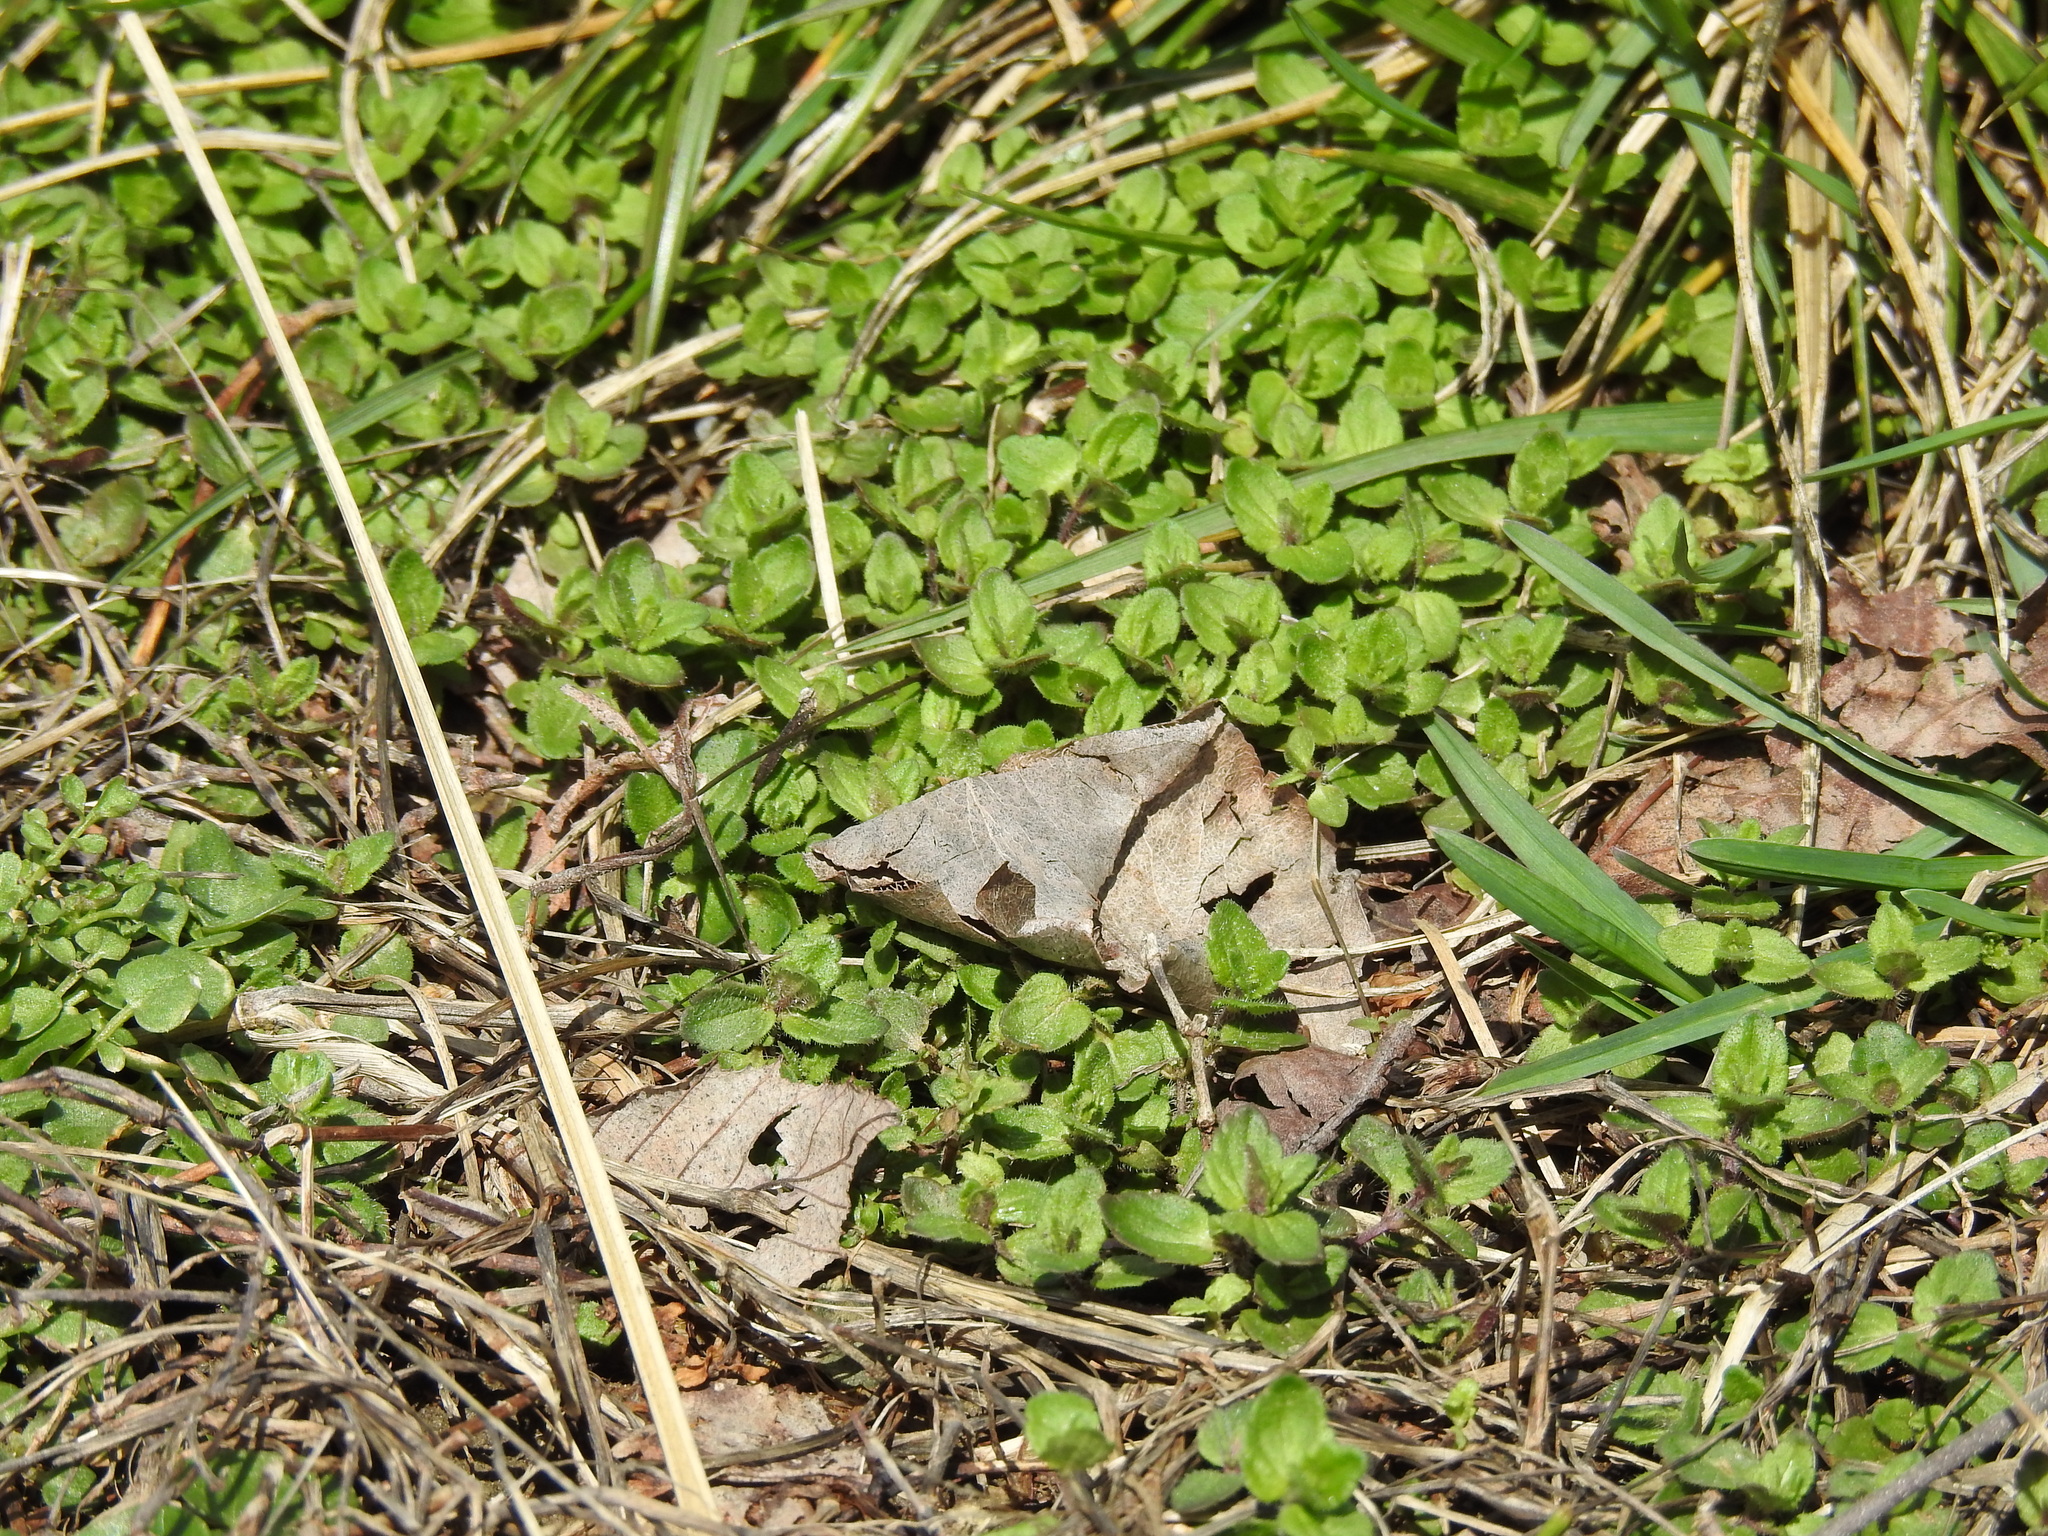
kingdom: Plantae
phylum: Tracheophyta
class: Magnoliopsida
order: Lamiales
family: Plantaginaceae
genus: Veronica
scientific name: Veronica arvensis
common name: Corn speedwell
